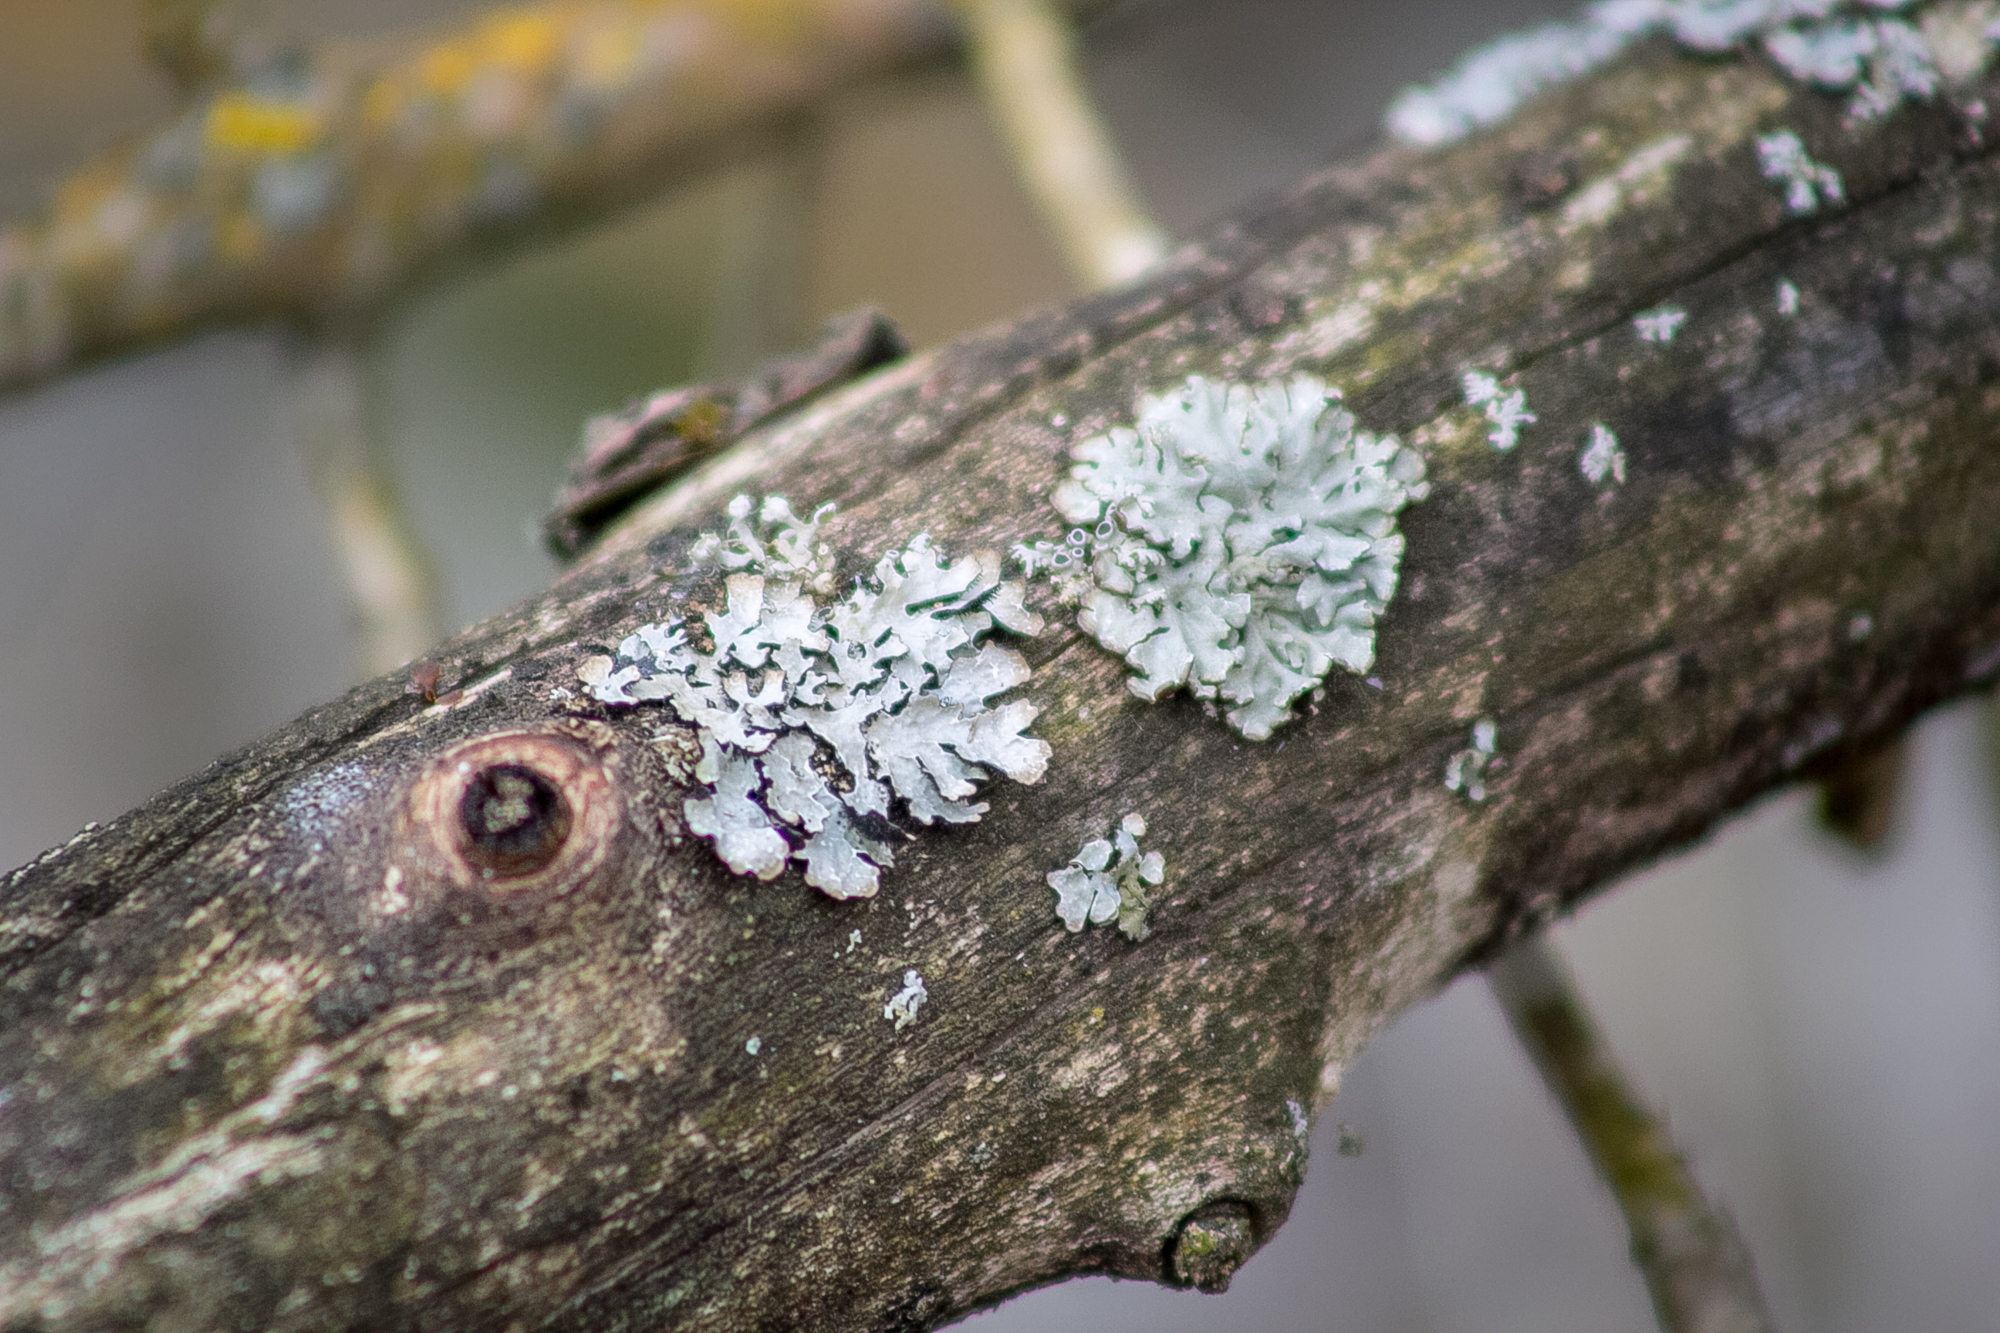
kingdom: Fungi
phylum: Ascomycota
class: Lecanoromycetes
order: Lecanorales
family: Parmeliaceae
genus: Parmelia
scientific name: Parmelia sulcata
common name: Netted shield lichen
